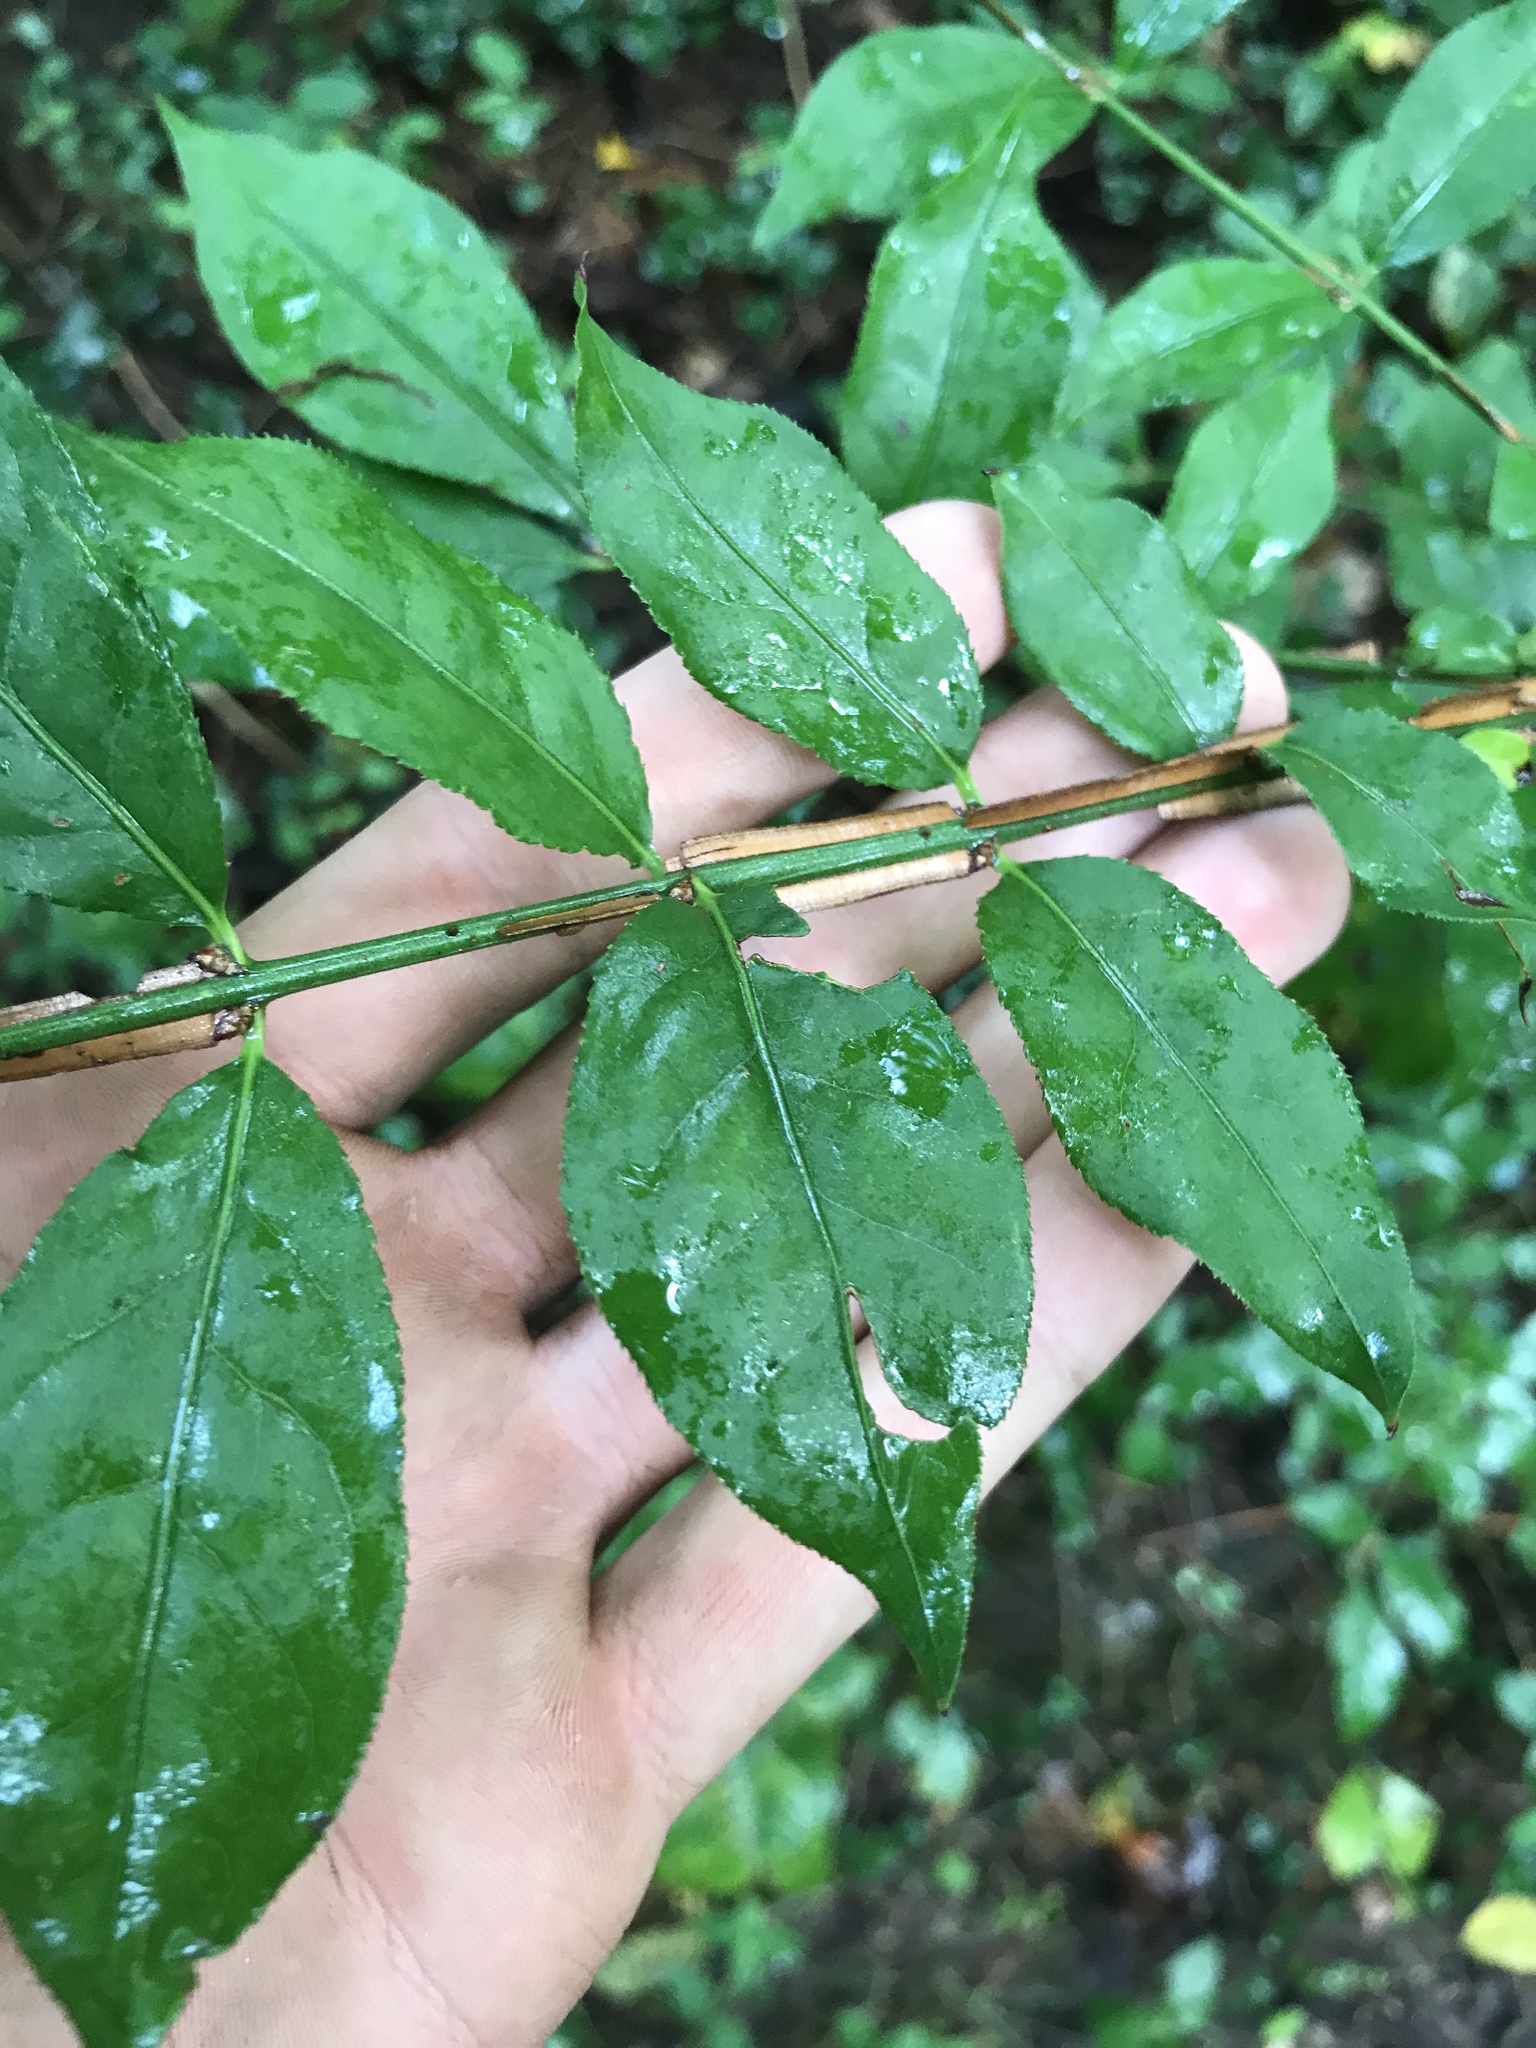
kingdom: Plantae
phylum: Tracheophyta
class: Magnoliopsida
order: Celastrales
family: Celastraceae
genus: Euonymus
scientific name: Euonymus alatus
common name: Winged euonymus
